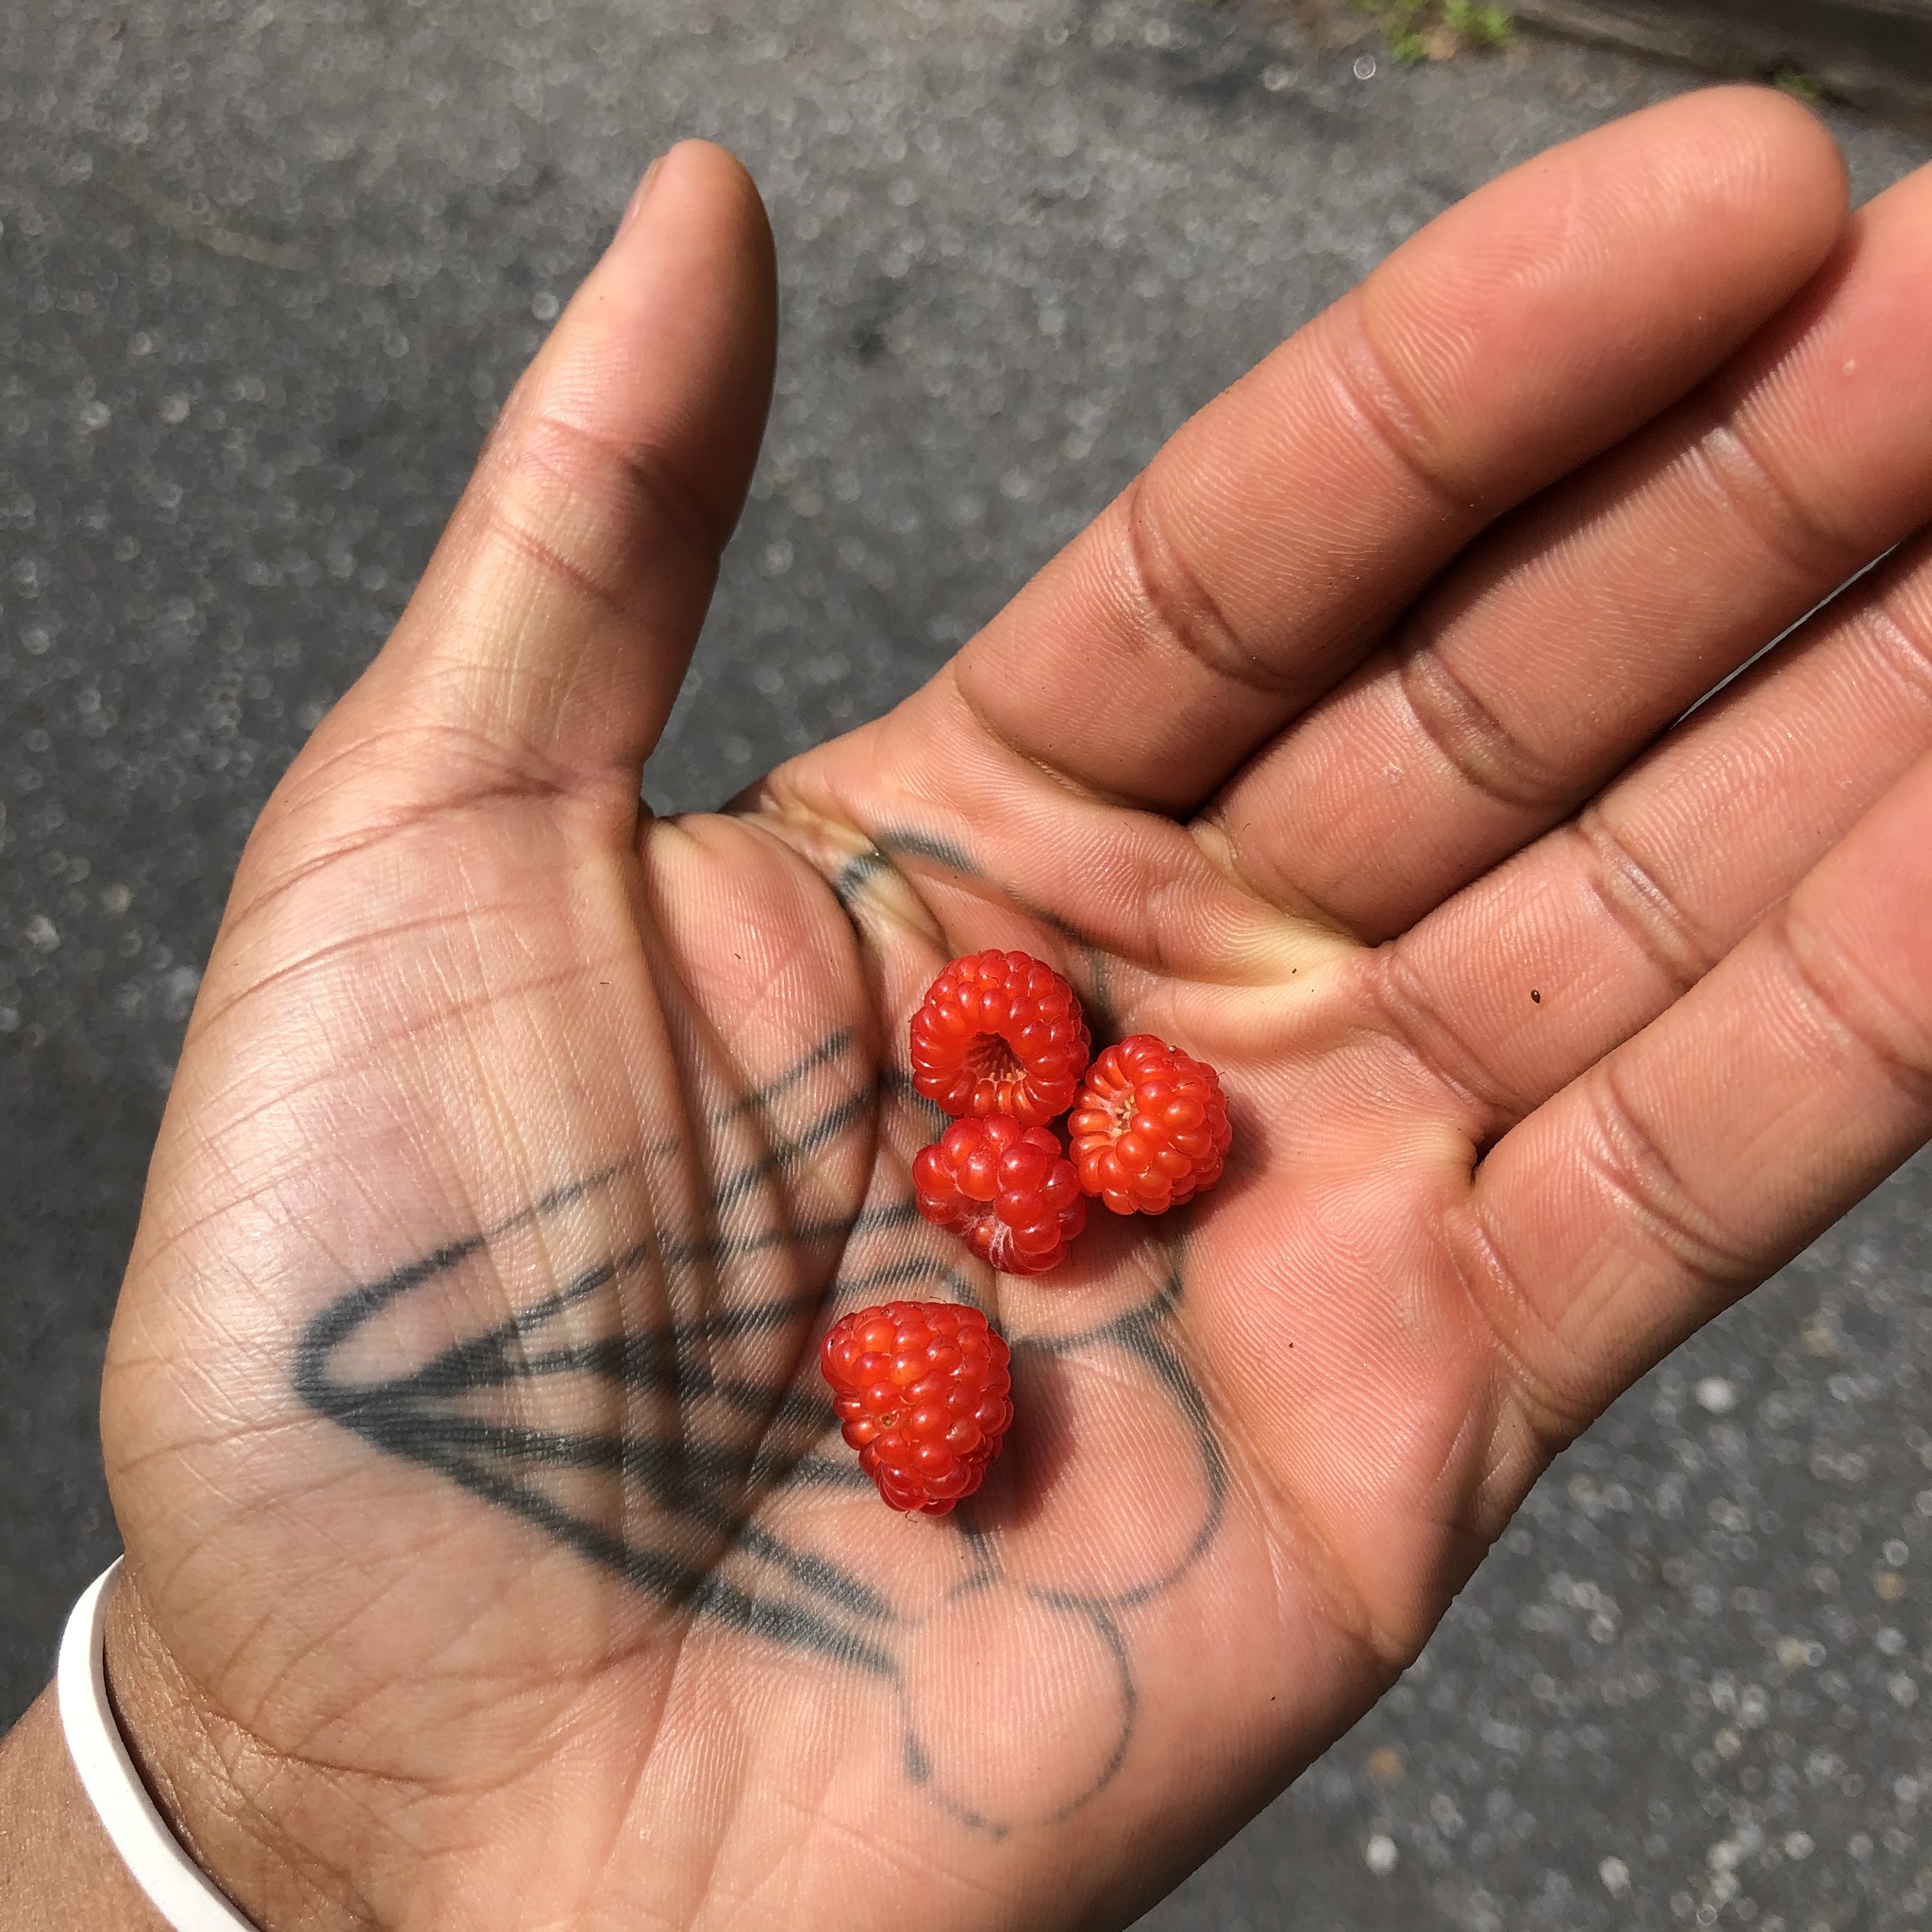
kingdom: Plantae
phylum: Tracheophyta
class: Magnoliopsida
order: Rosales
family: Rosaceae
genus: Rubus
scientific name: Rubus phoenicolasius
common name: Japanese wineberry
